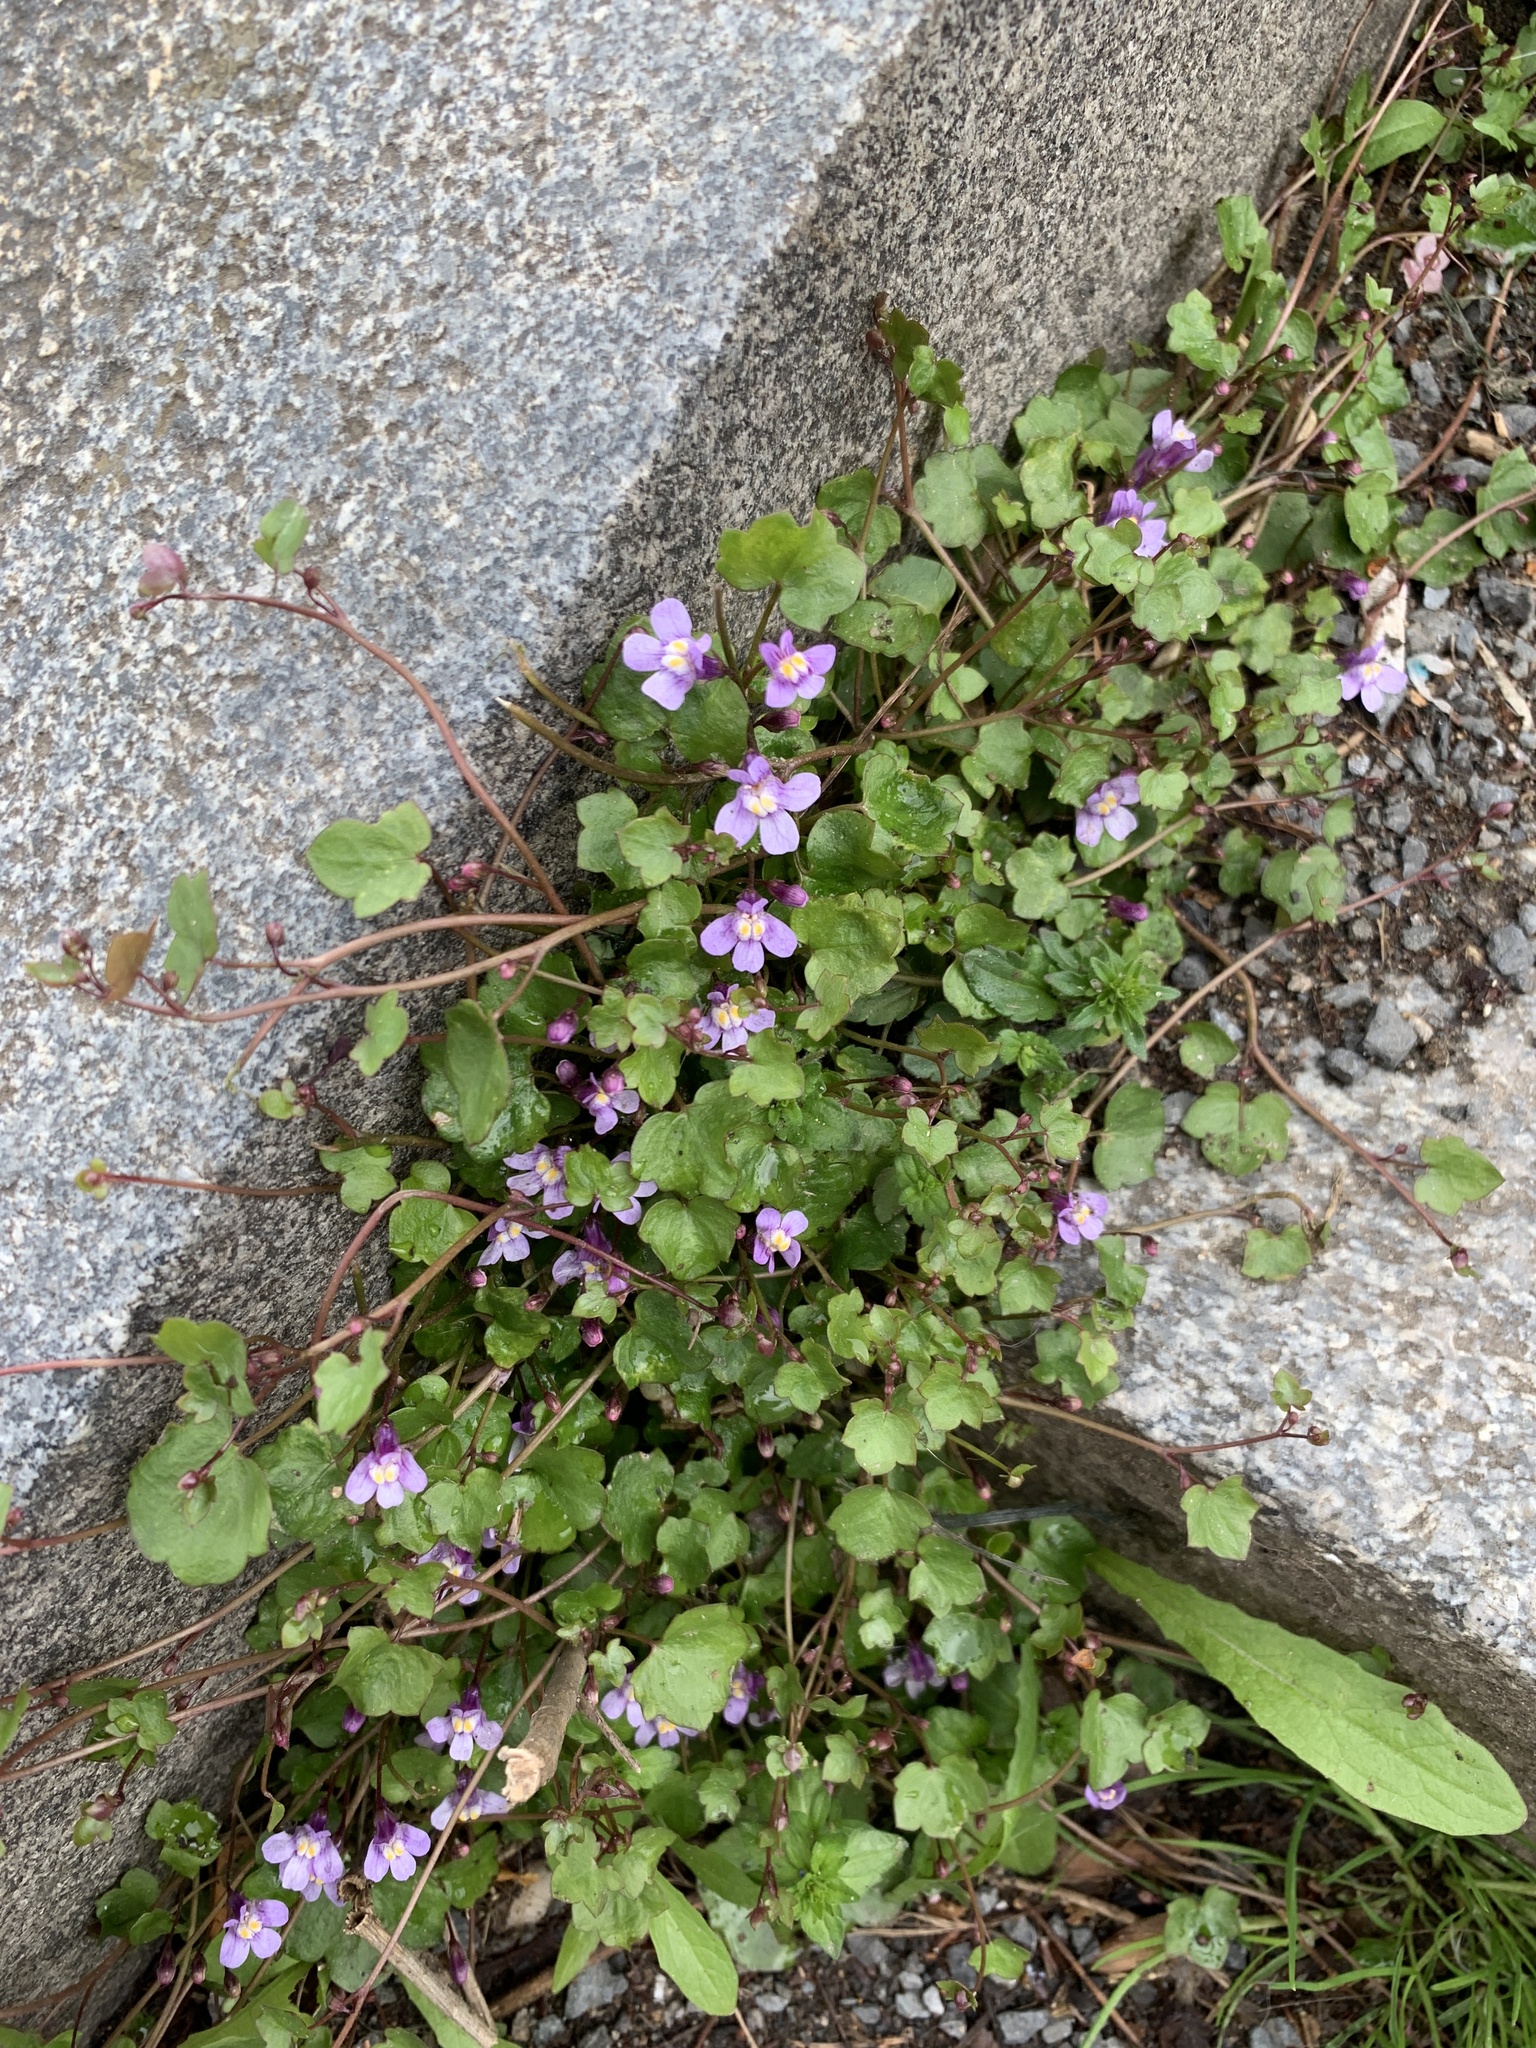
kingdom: Plantae
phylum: Tracheophyta
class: Magnoliopsida
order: Lamiales
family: Plantaginaceae
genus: Cymbalaria
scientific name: Cymbalaria muralis
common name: Ivy-leaved toadflax
